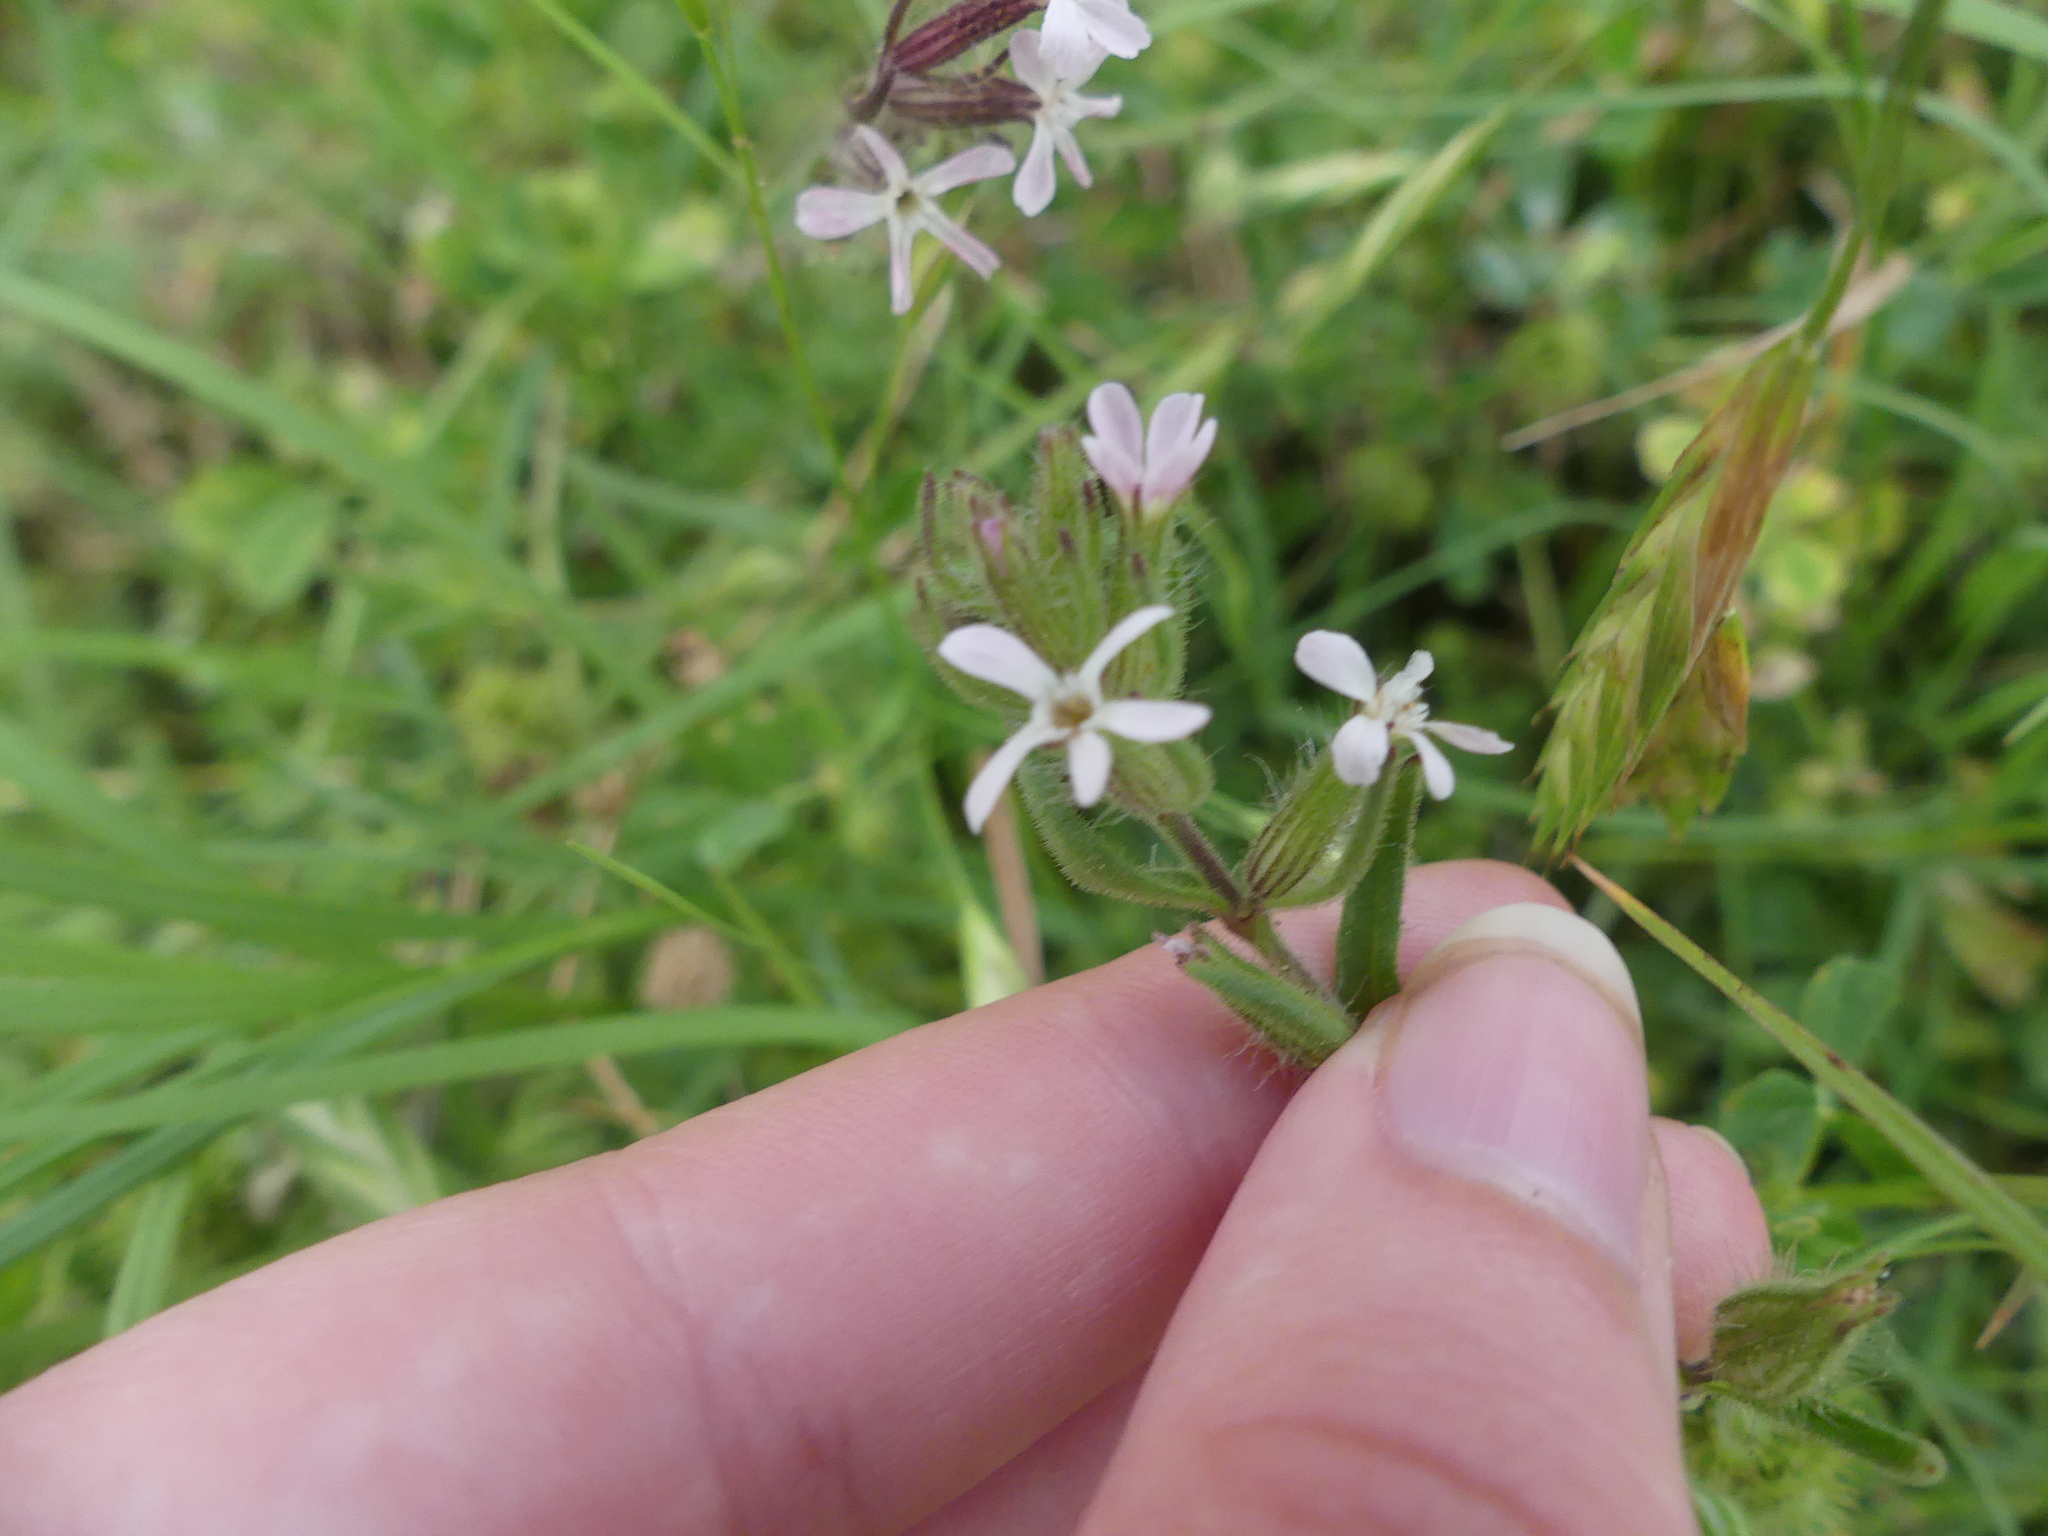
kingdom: Plantae
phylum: Tracheophyta
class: Magnoliopsida
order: Caryophyllales
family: Caryophyllaceae
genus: Silene
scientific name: Silene gallica
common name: Small-flowered catchfly
